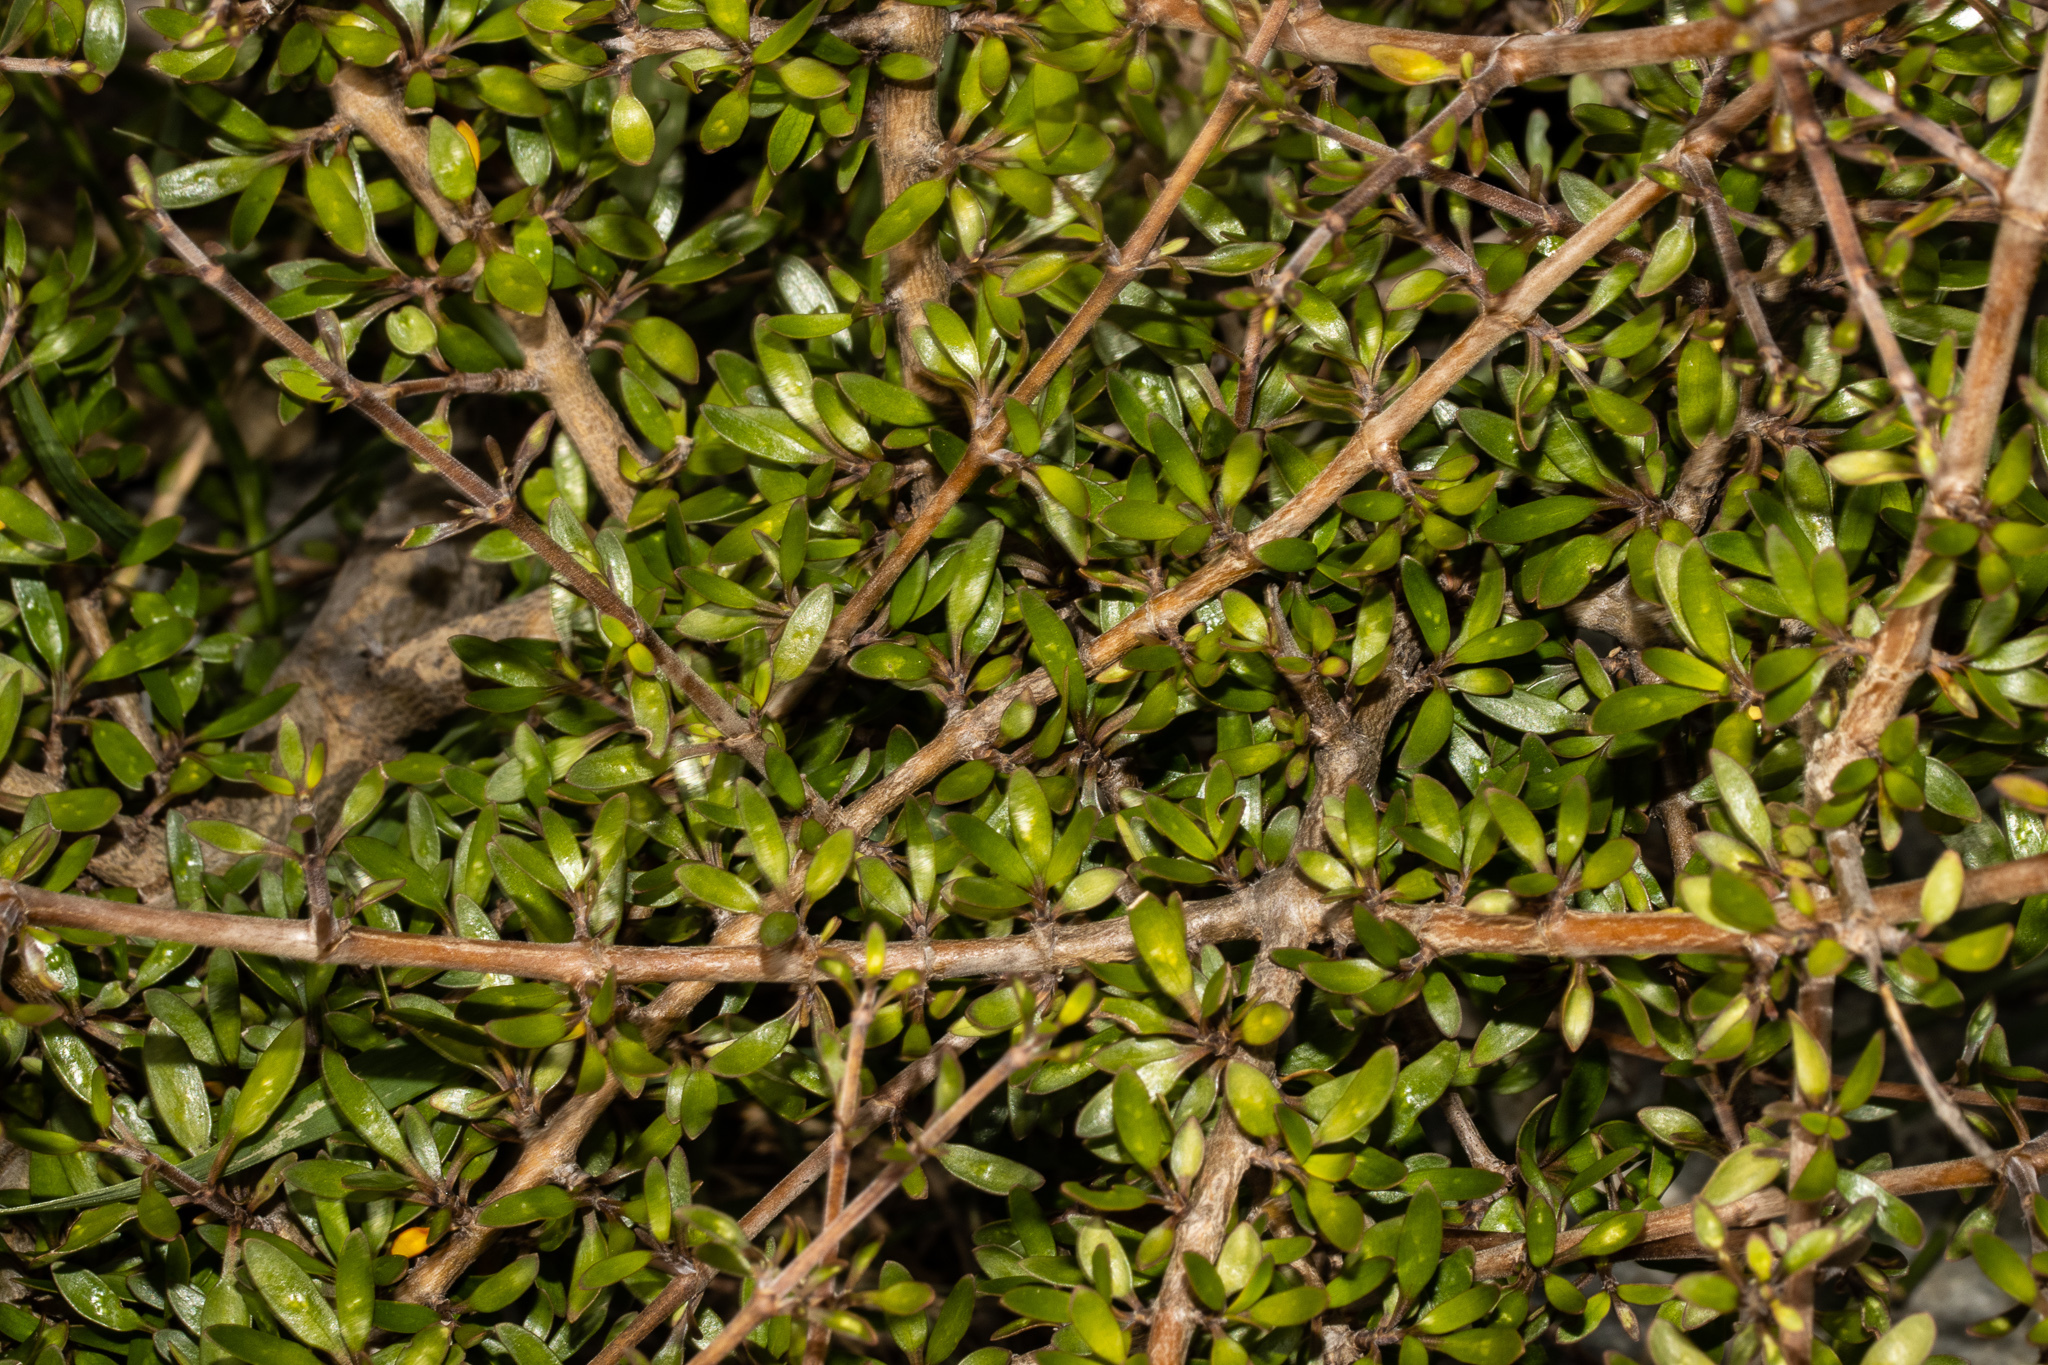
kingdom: Plantae
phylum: Tracheophyta
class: Magnoliopsida
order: Gentianales
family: Rubiaceae
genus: Coprosma
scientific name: Coprosma propinqua
